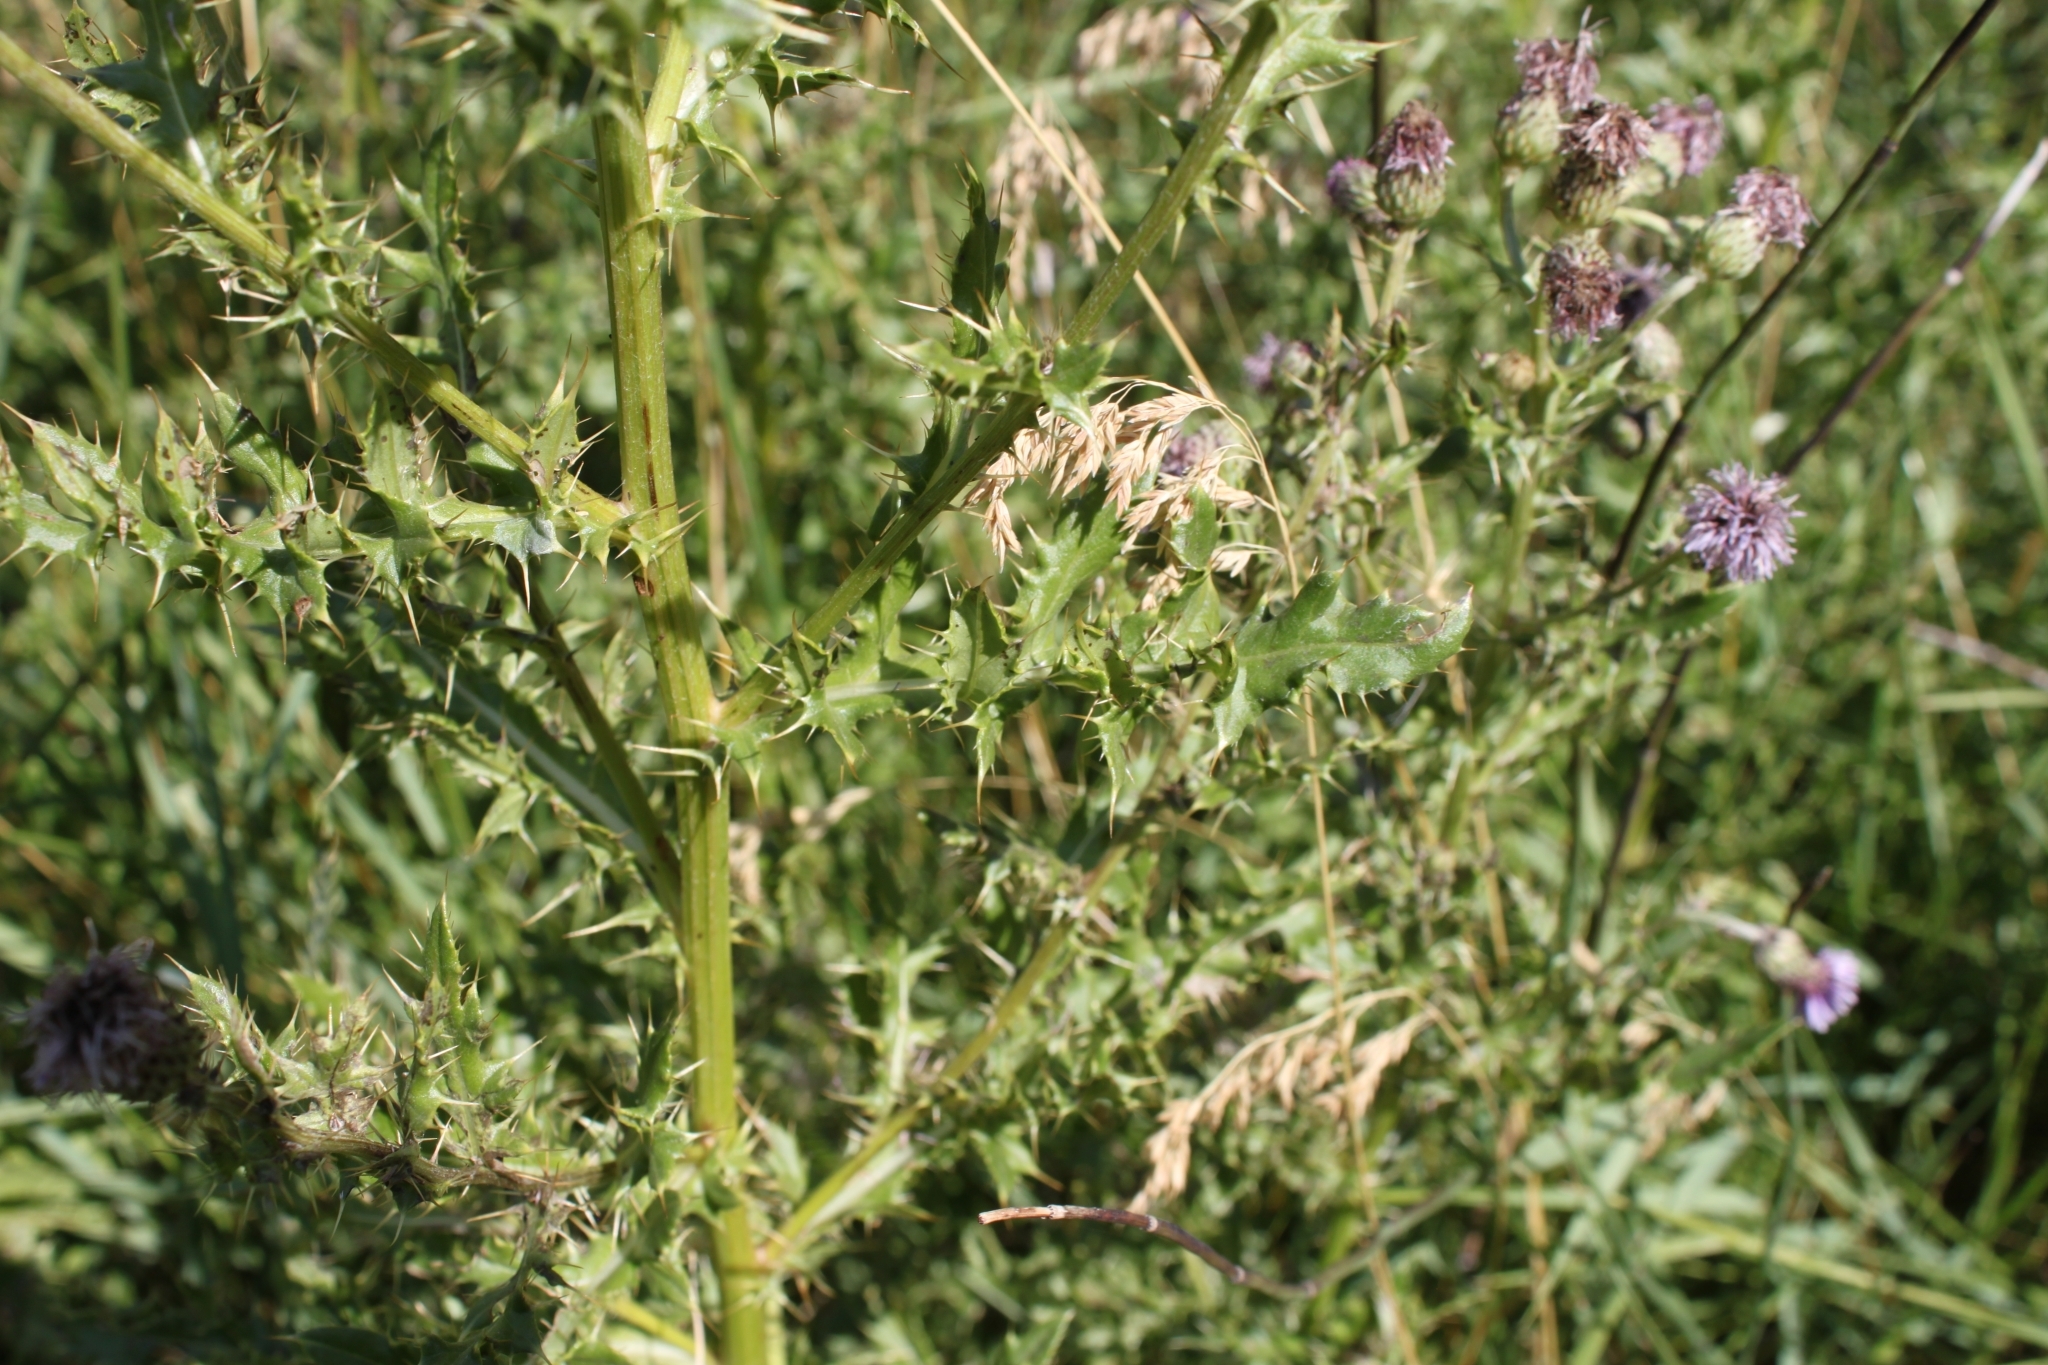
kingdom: Plantae
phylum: Tracheophyta
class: Magnoliopsida
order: Asterales
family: Asteraceae
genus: Cirsium
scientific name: Cirsium arvense
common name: Creeping thistle
